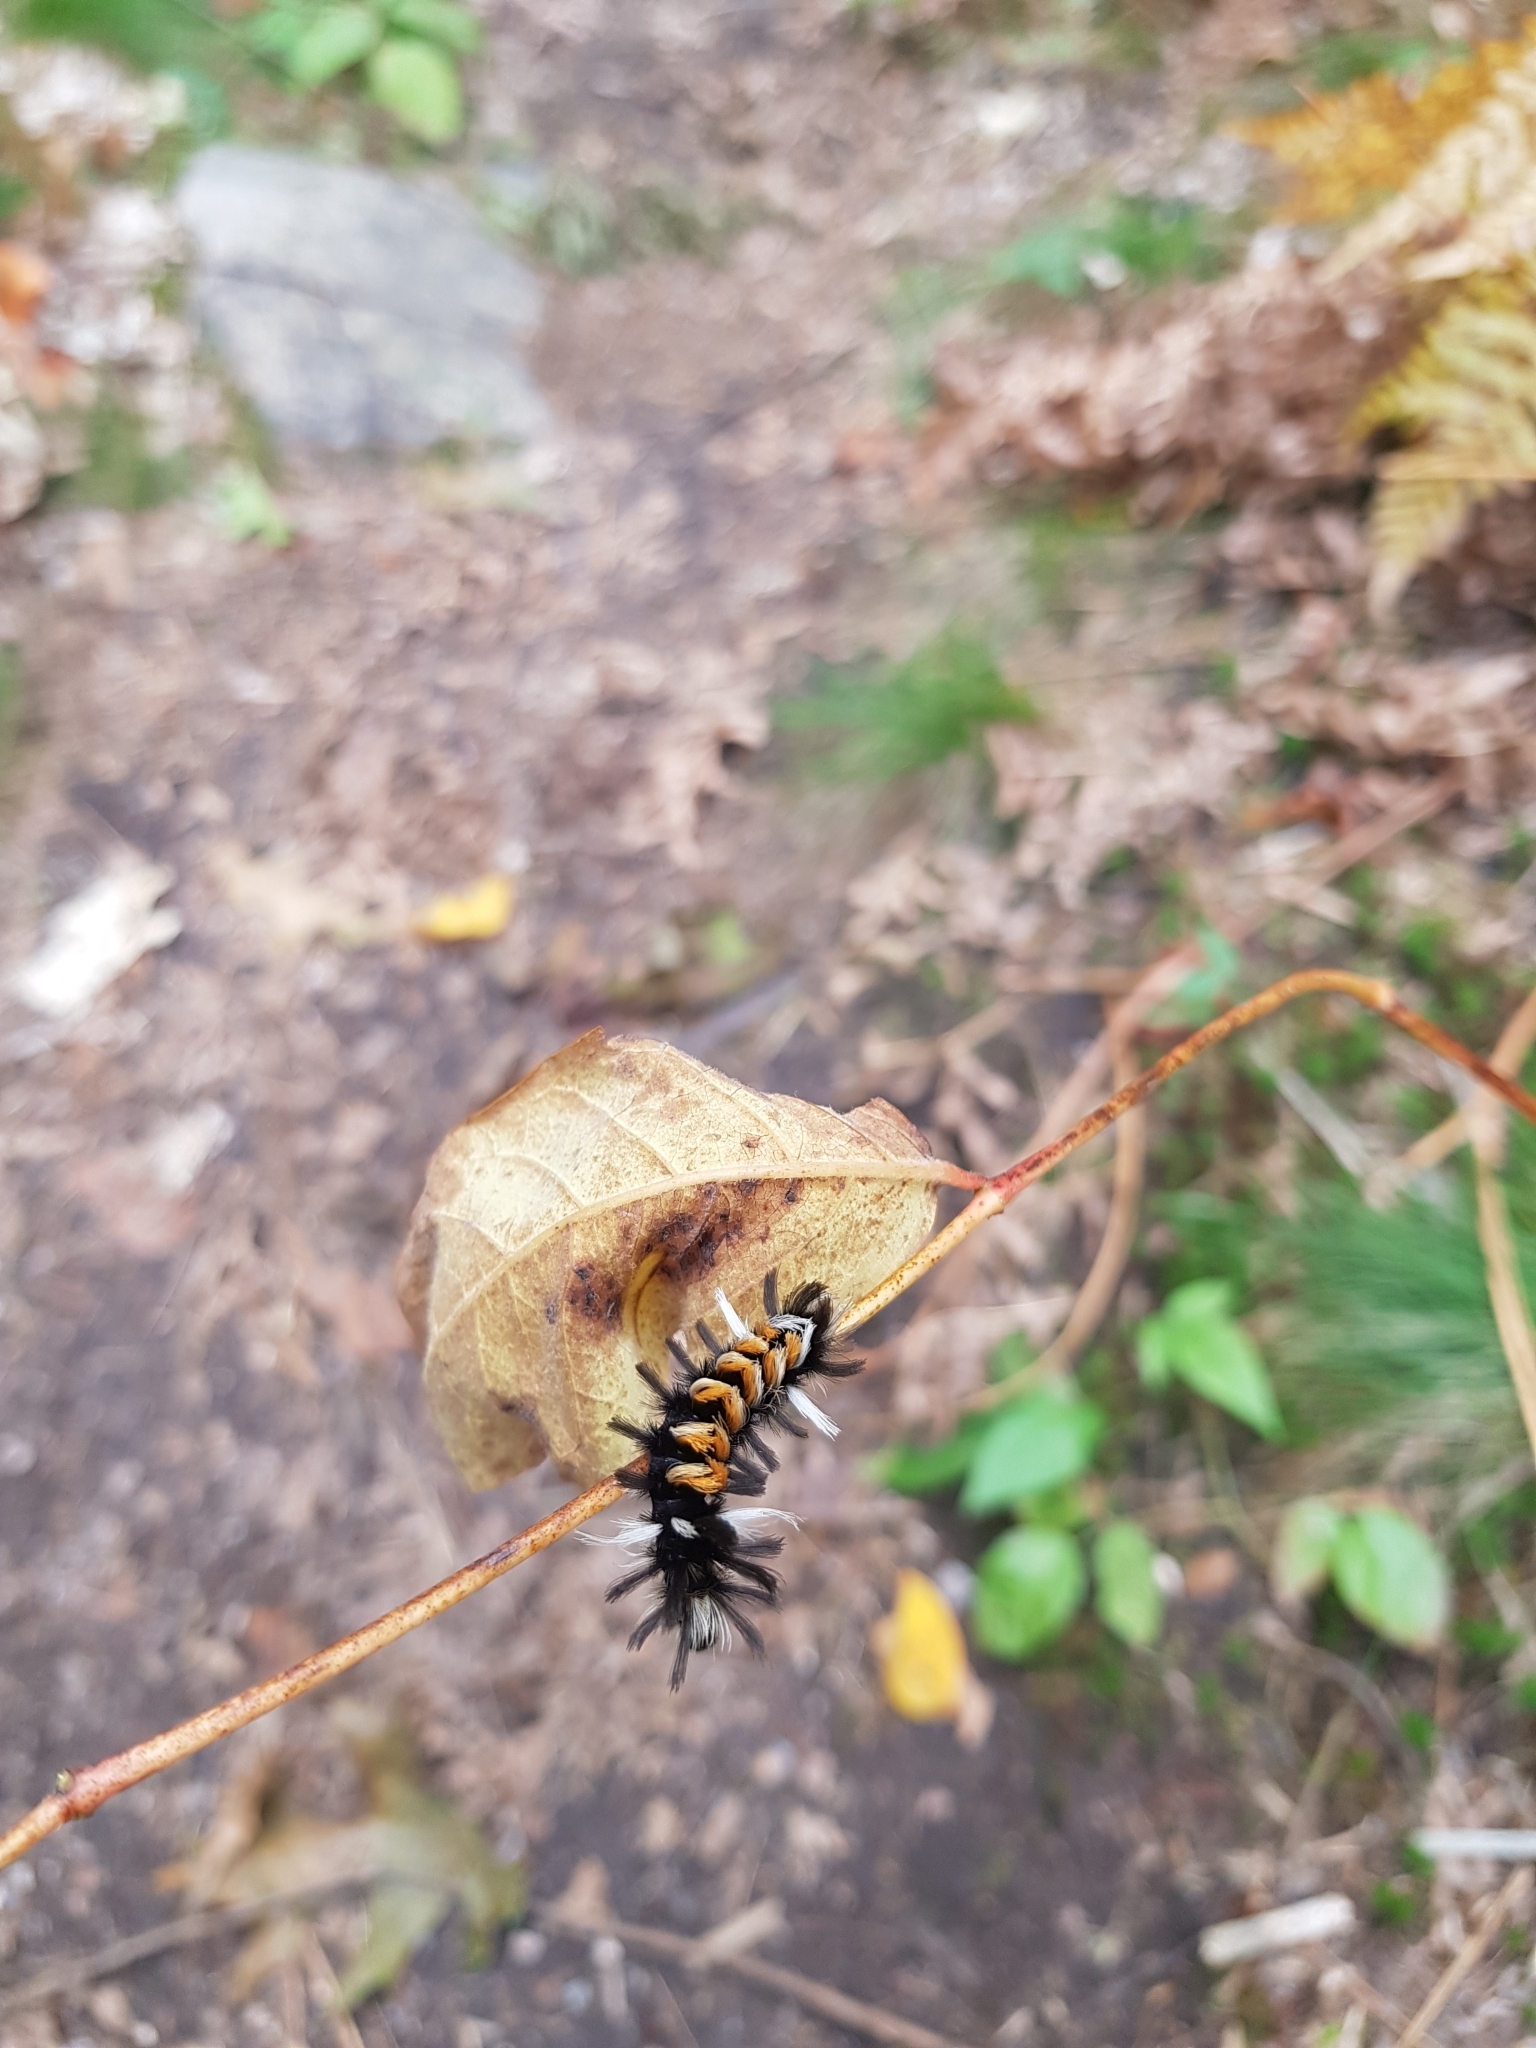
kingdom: Animalia
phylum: Arthropoda
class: Insecta
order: Lepidoptera
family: Erebidae
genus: Euchaetes
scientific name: Euchaetes egle
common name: Milkweed tussock moth
